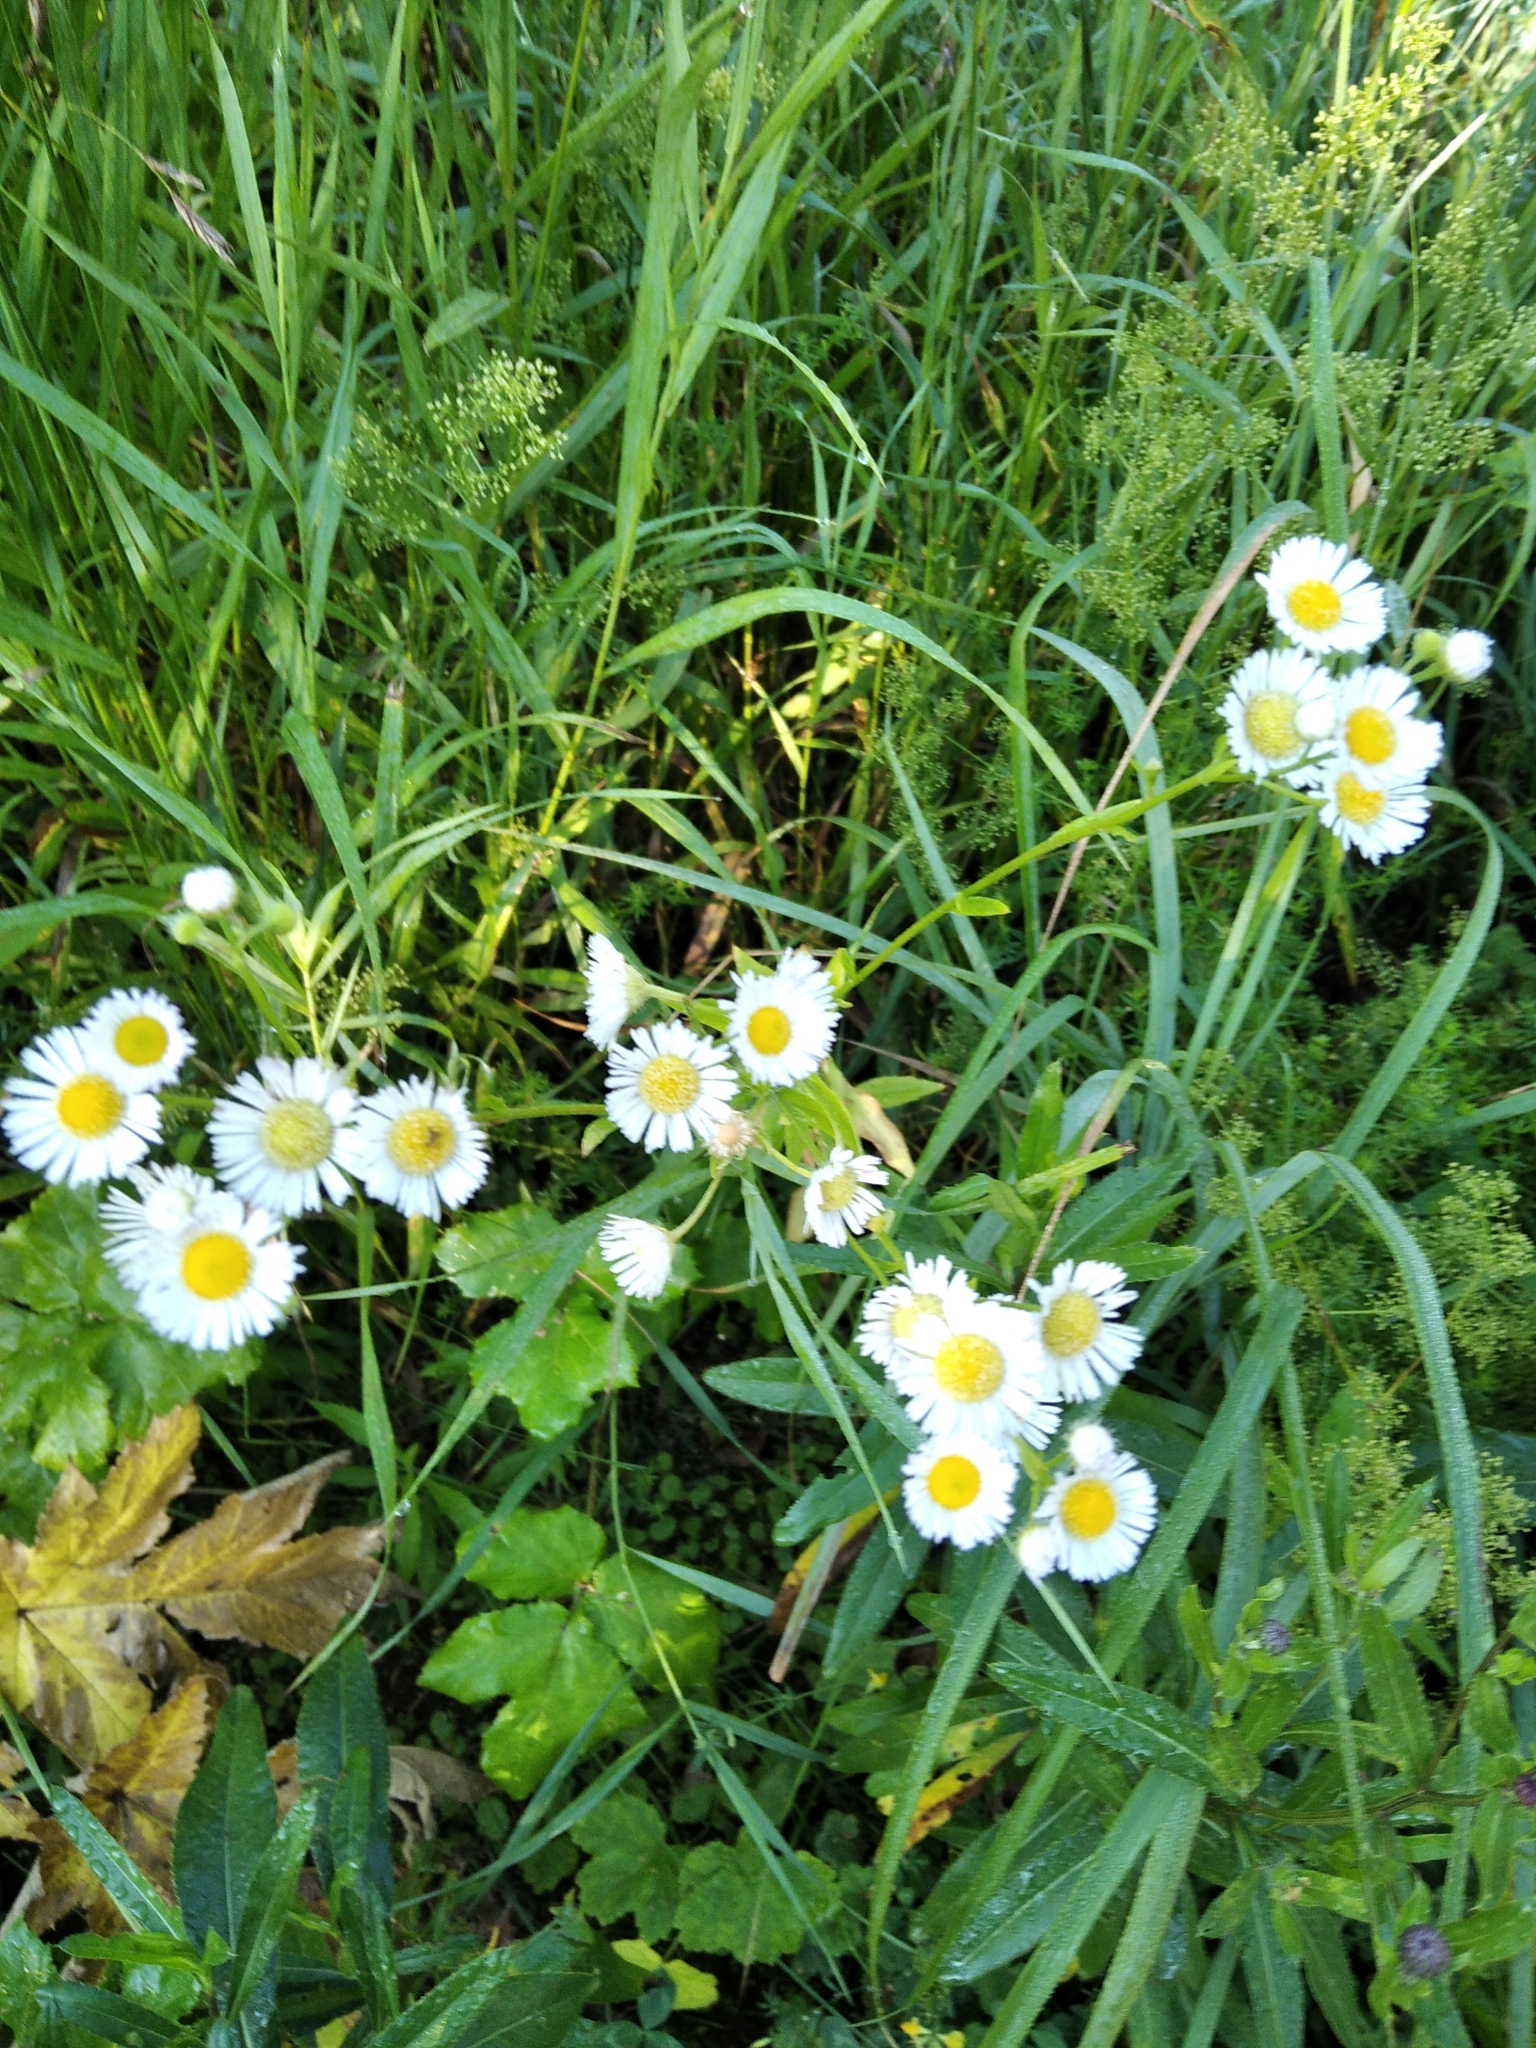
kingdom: Plantae
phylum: Tracheophyta
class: Magnoliopsida
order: Asterales
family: Asteraceae
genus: Erigeron
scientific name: Erigeron annuus
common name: Tall fleabane
